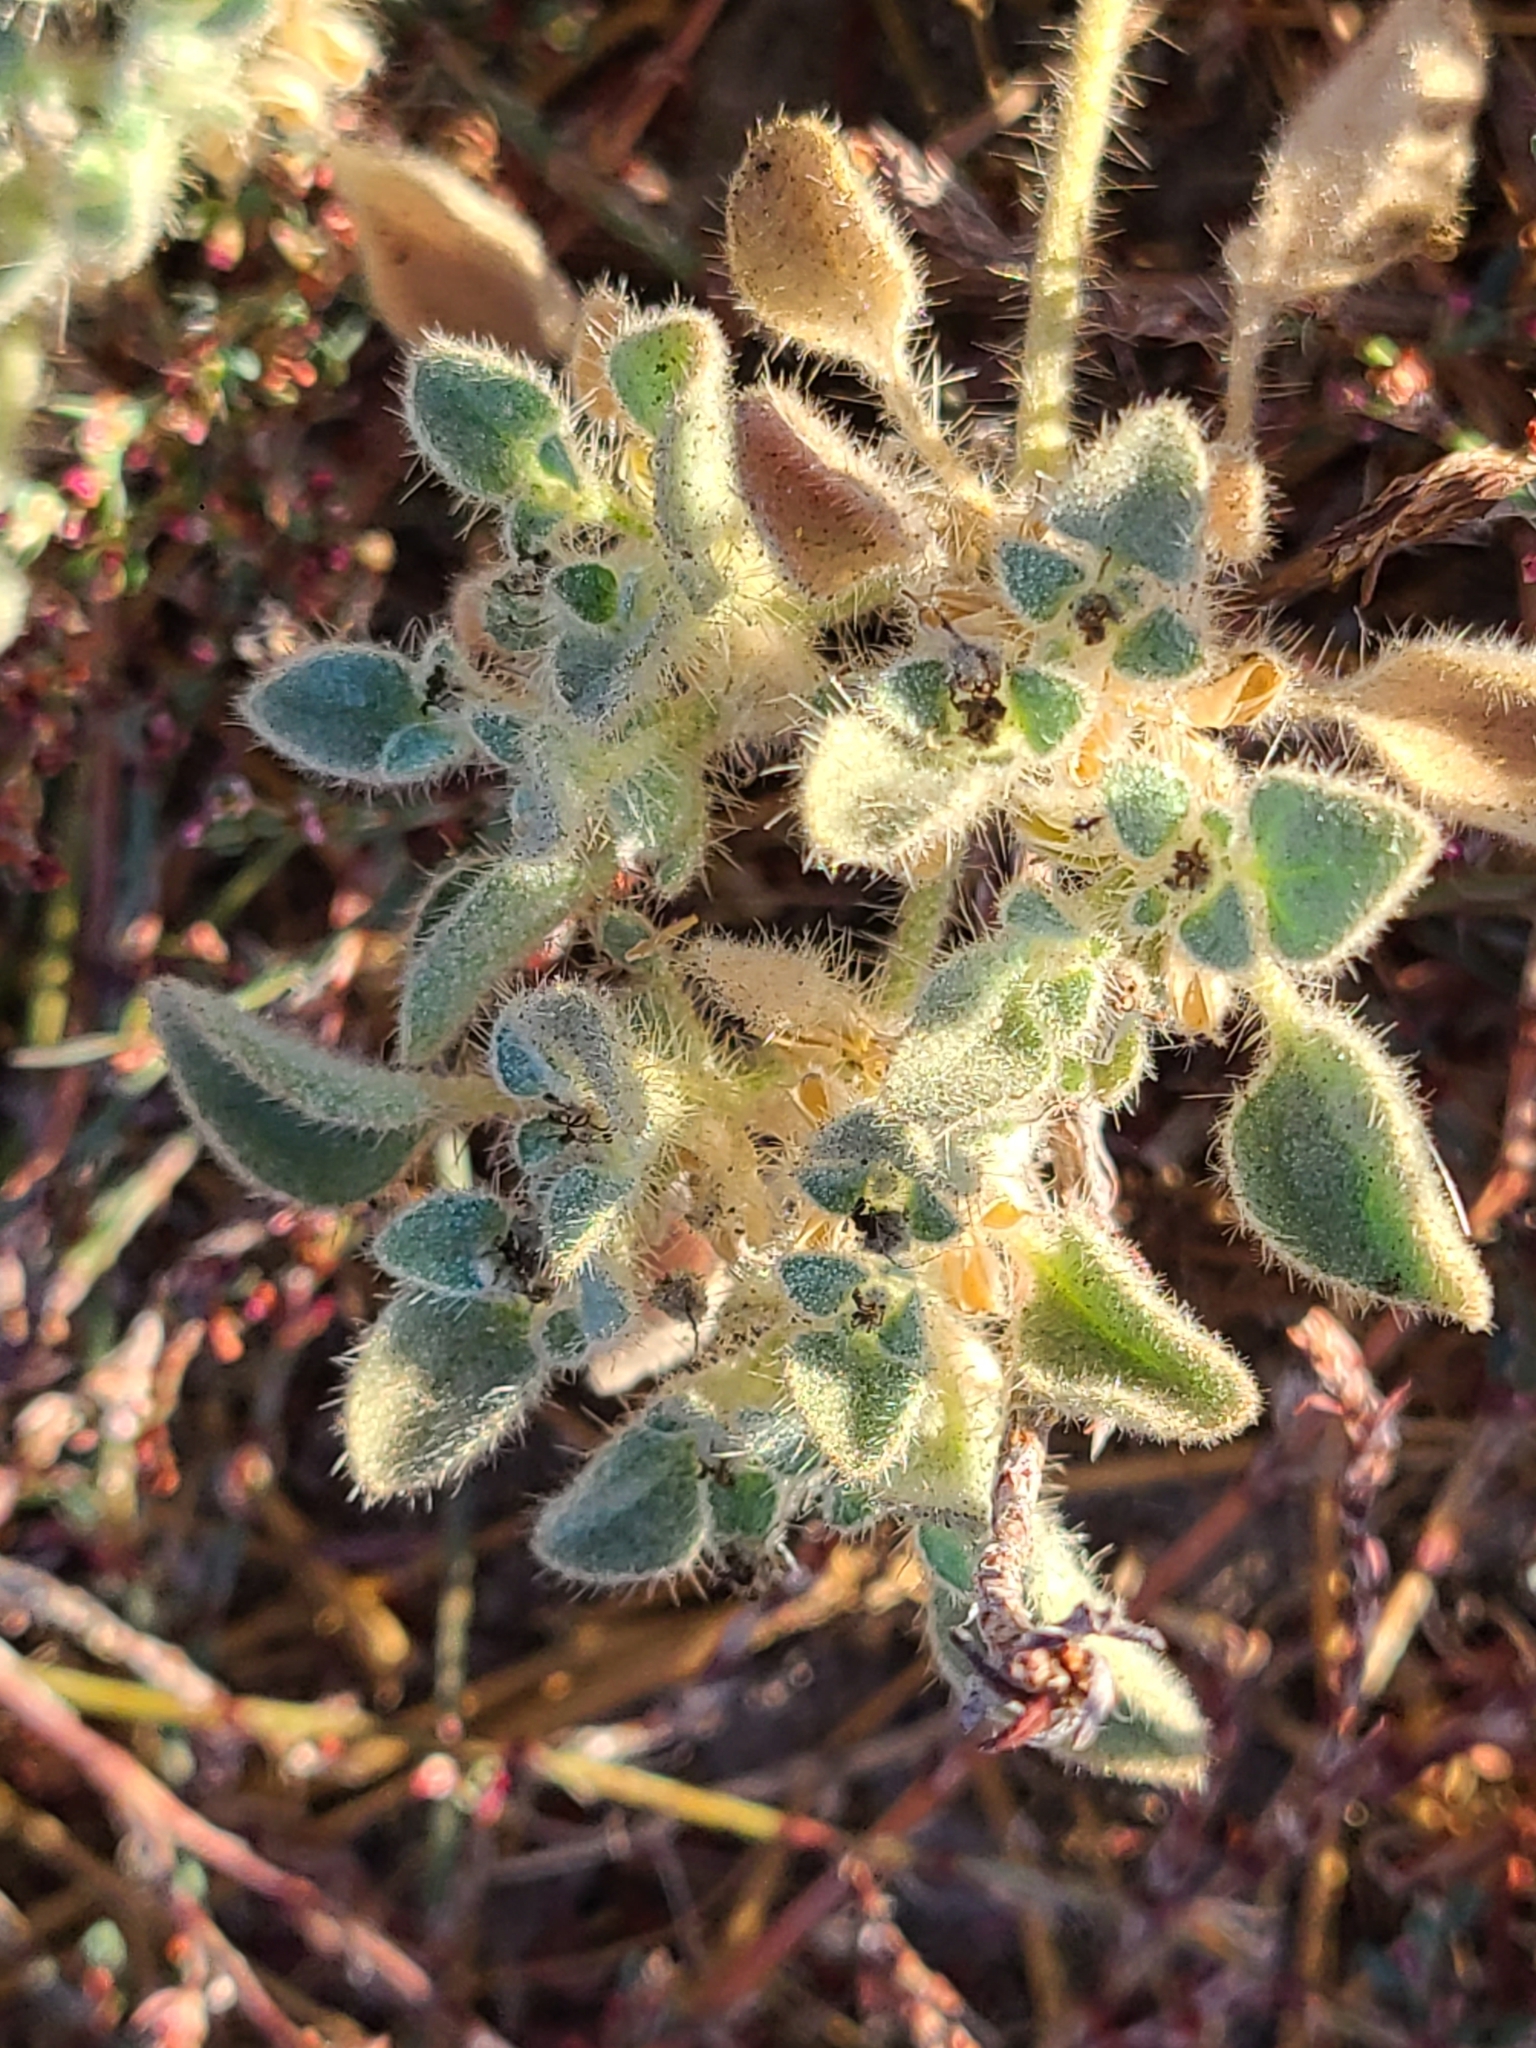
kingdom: Plantae
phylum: Tracheophyta
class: Magnoliopsida
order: Malpighiales
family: Euphorbiaceae
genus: Croton
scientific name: Croton setiger
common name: Dove weed
